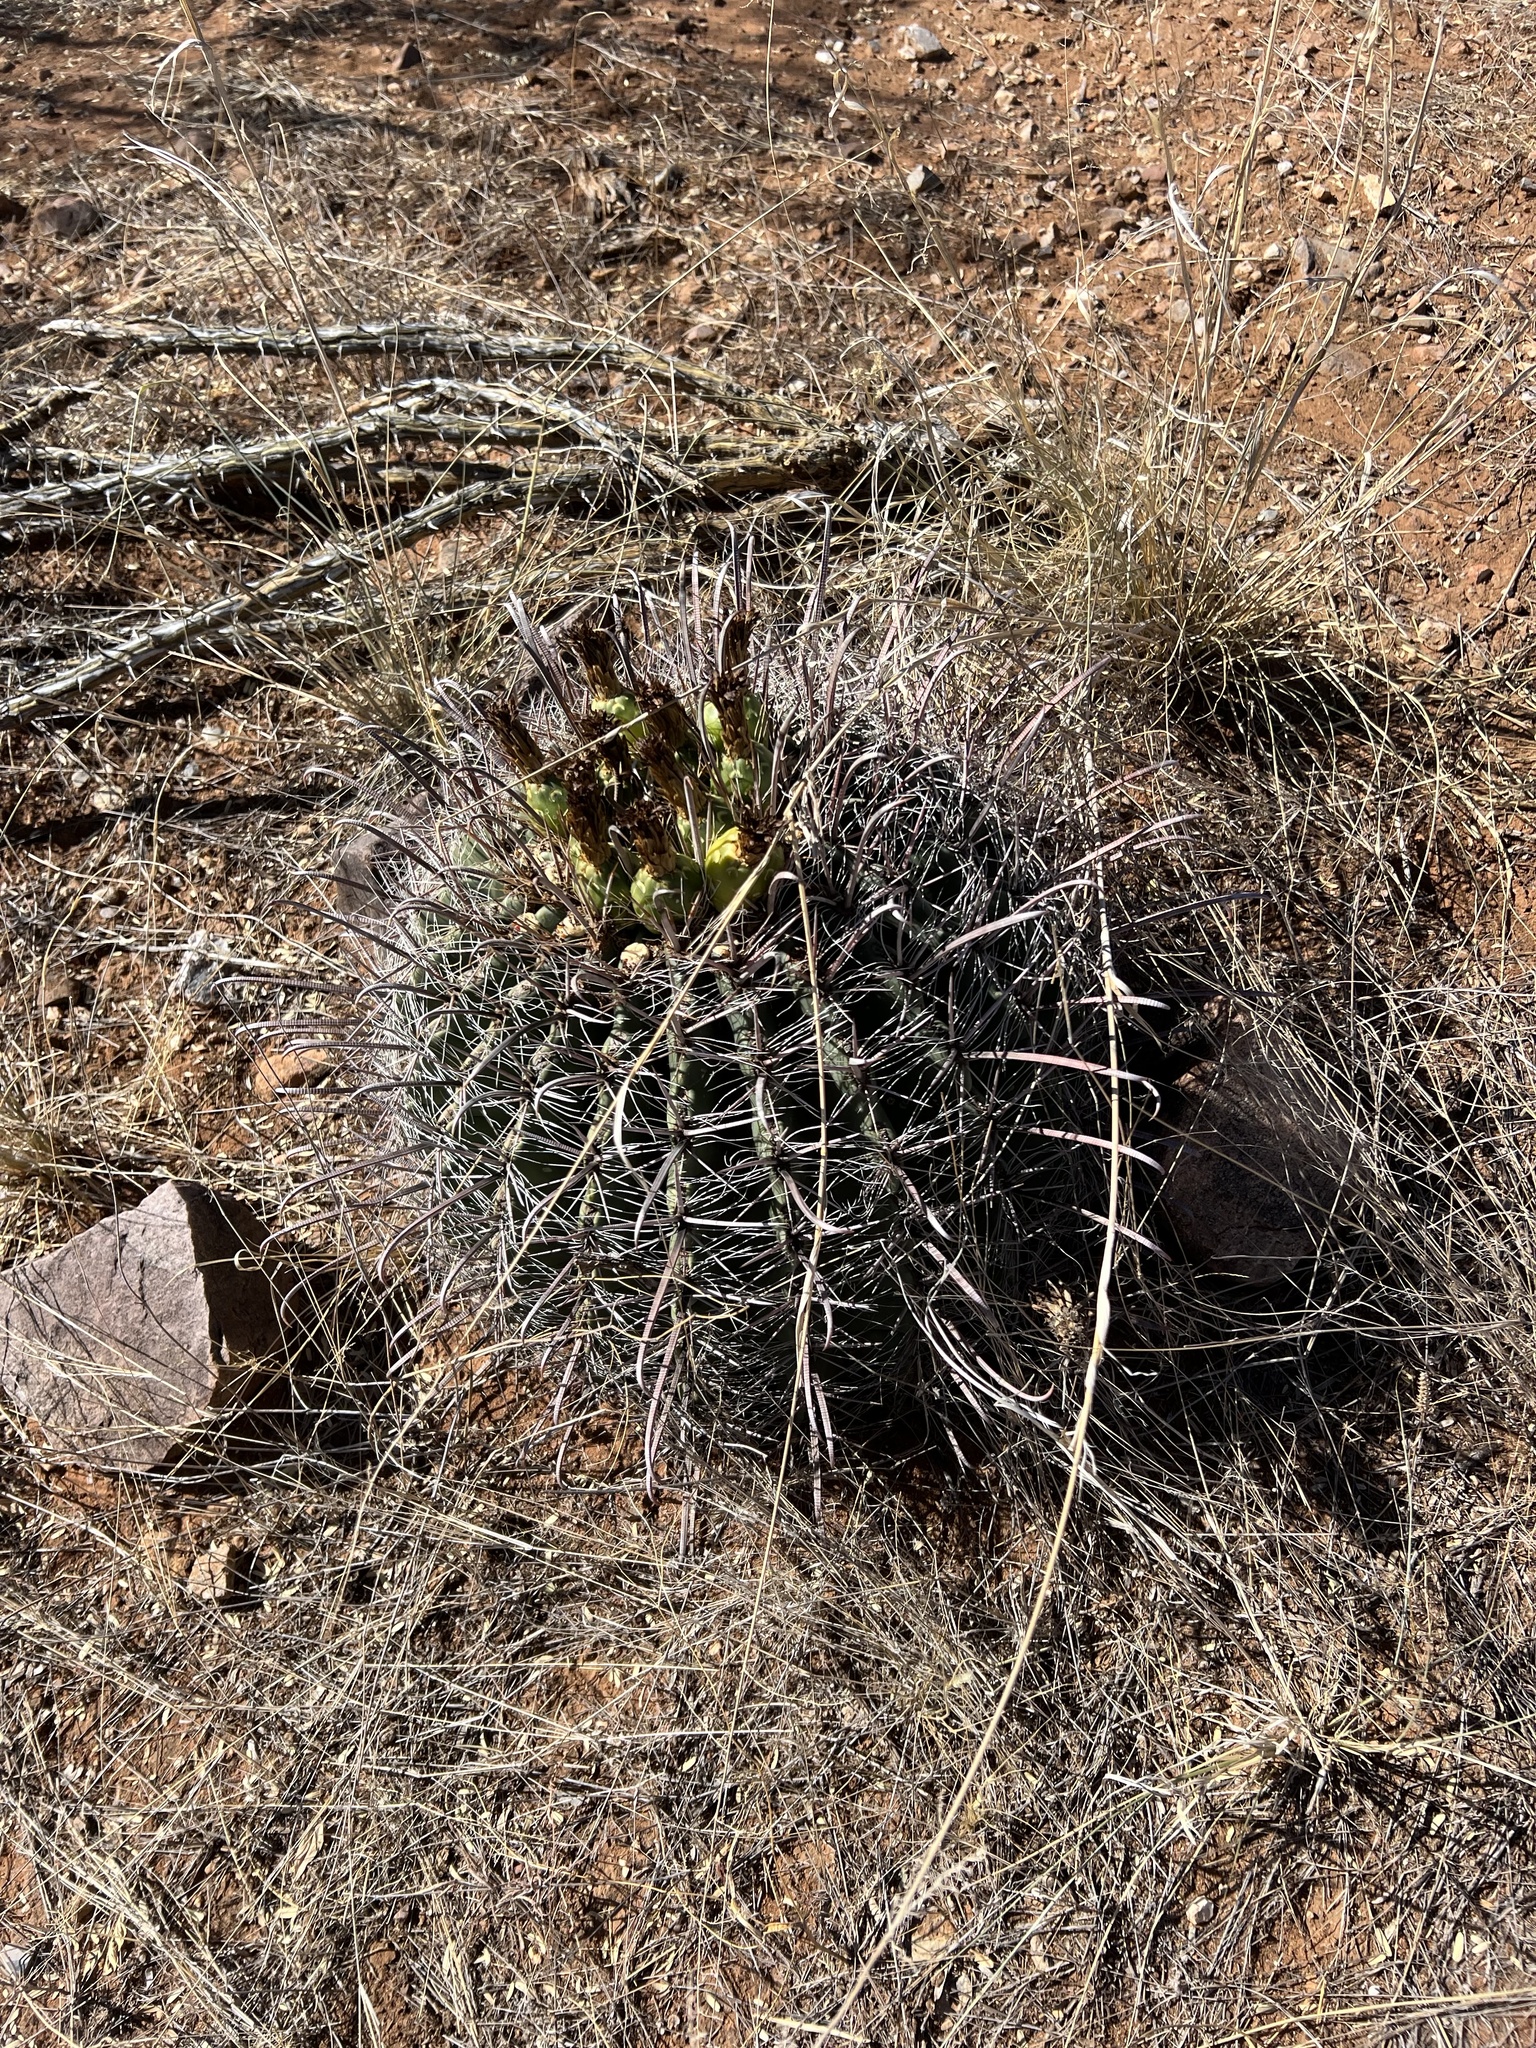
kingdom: Plantae
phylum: Tracheophyta
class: Magnoliopsida
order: Caryophyllales
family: Cactaceae
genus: Ferocactus
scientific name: Ferocactus wislizeni
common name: Candy barrel cactus
